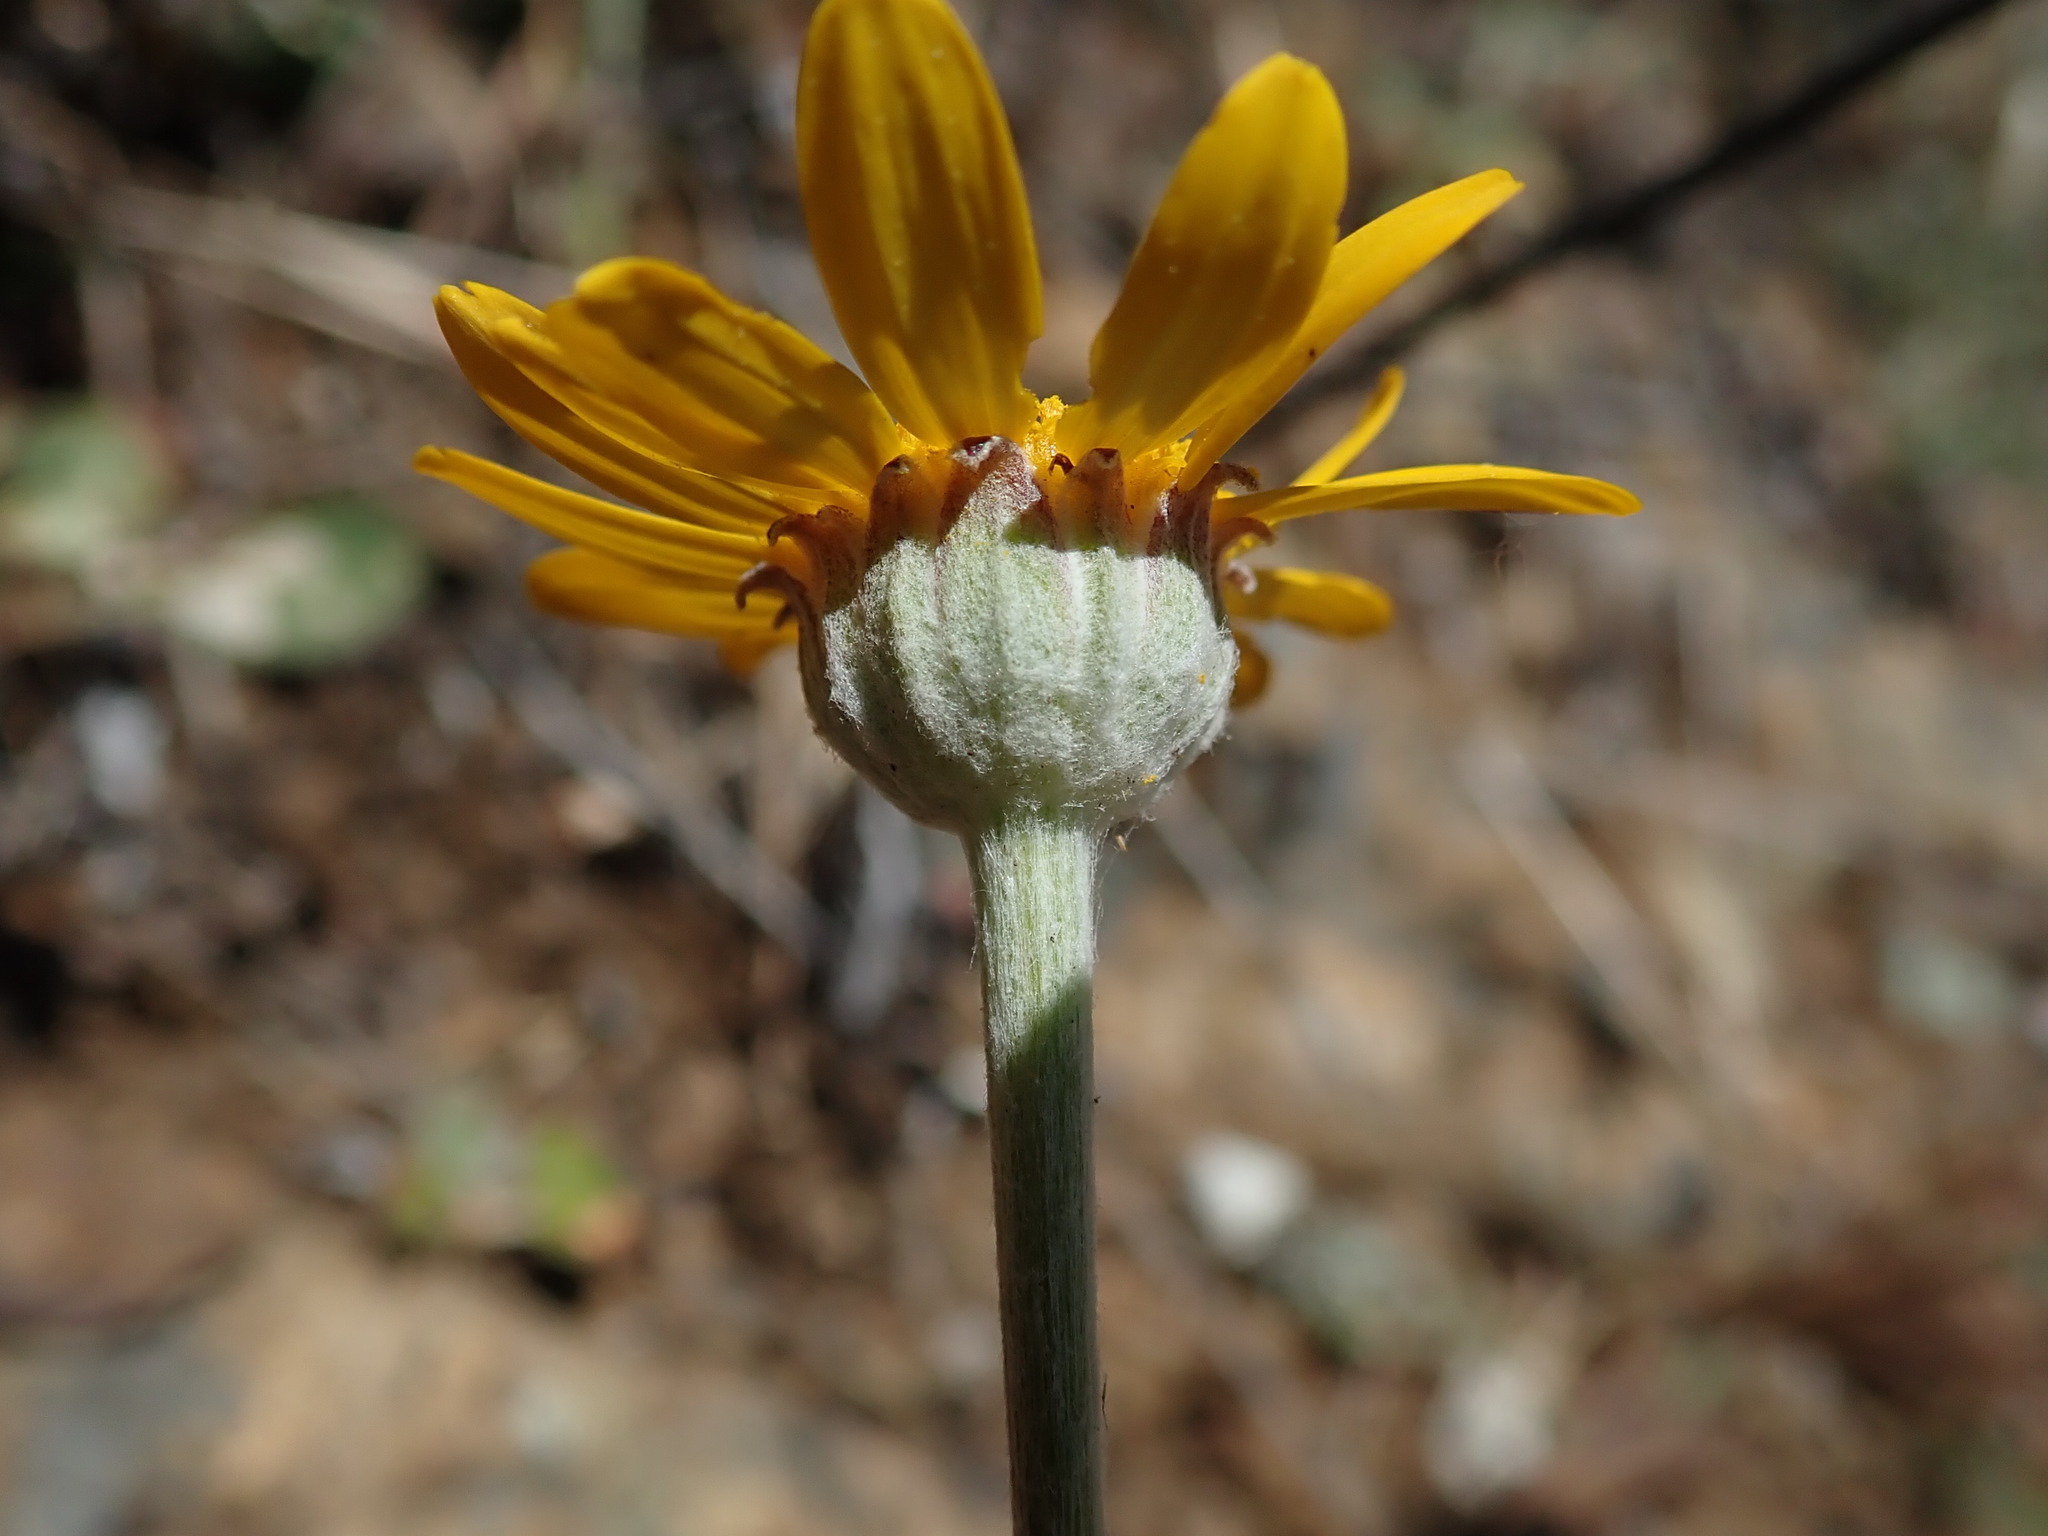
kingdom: Plantae
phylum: Tracheophyta
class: Magnoliopsida
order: Asterales
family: Asteraceae
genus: Eriophyllum
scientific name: Eriophyllum lanatum
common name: Common woolly-sunflower
